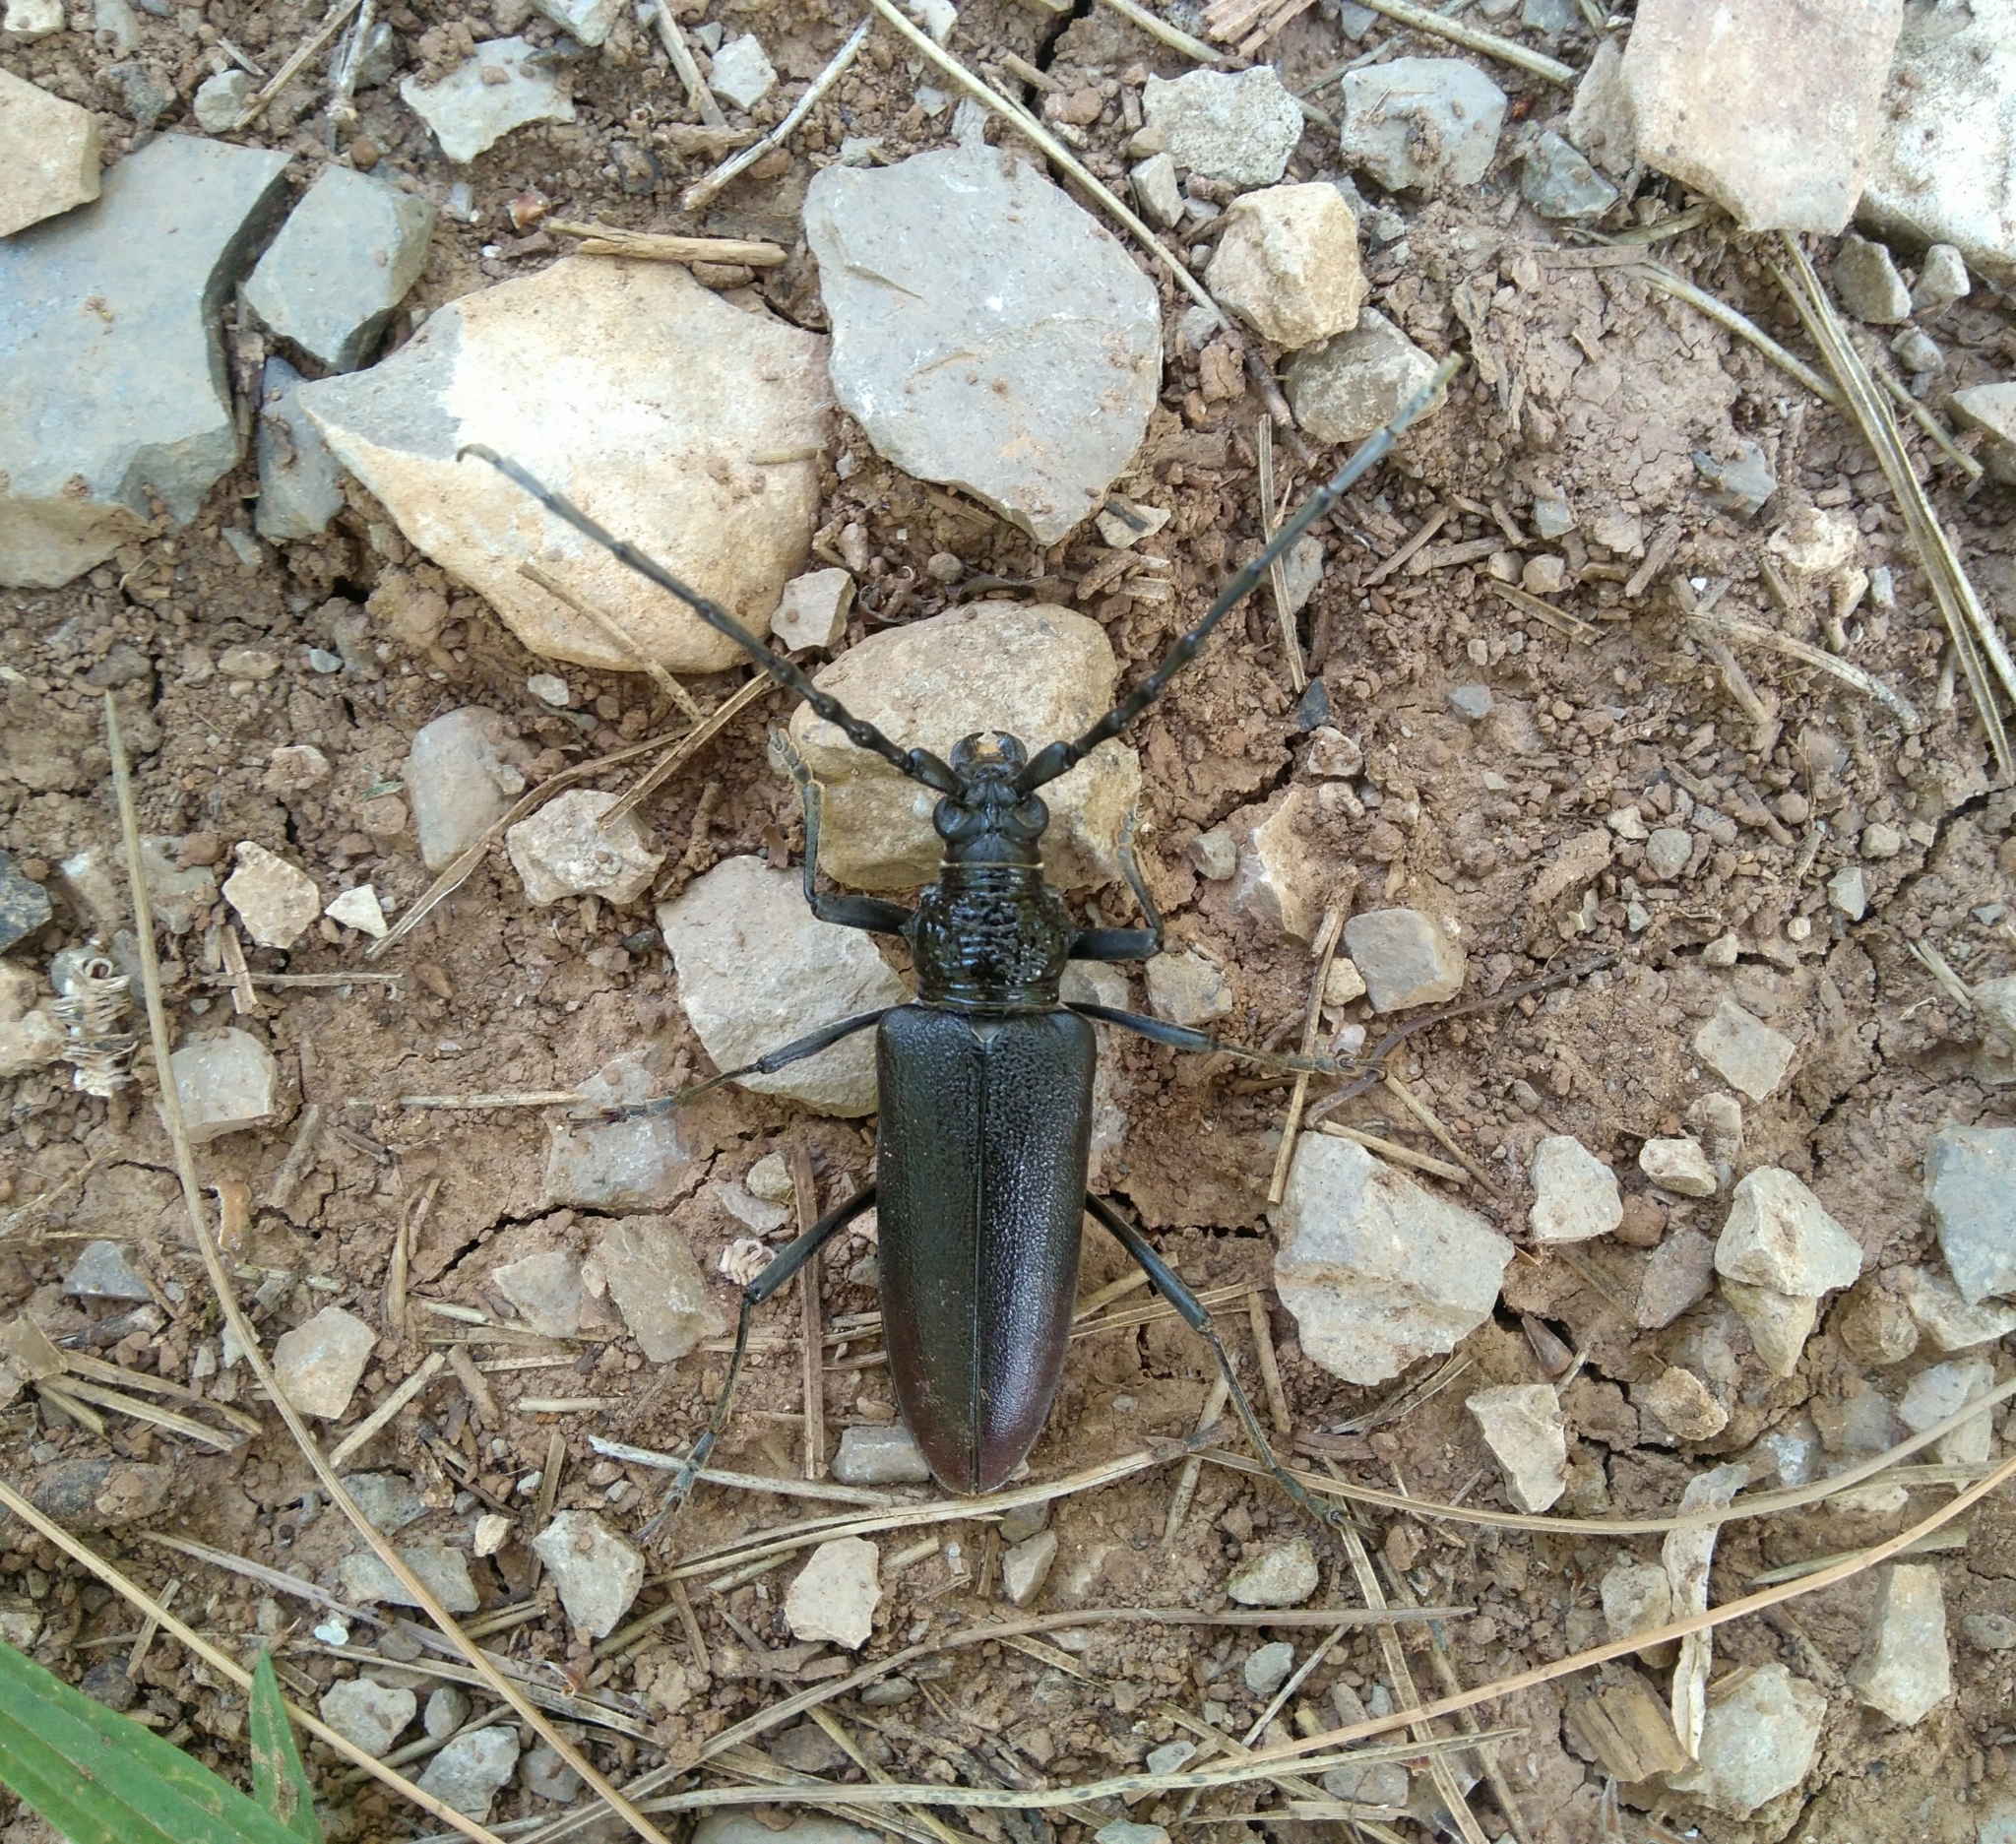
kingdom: Animalia
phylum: Arthropoda
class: Insecta
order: Coleoptera
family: Cerambycidae
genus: Cerambyx
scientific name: Cerambyx cerdo
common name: Cerambyx longicorn
